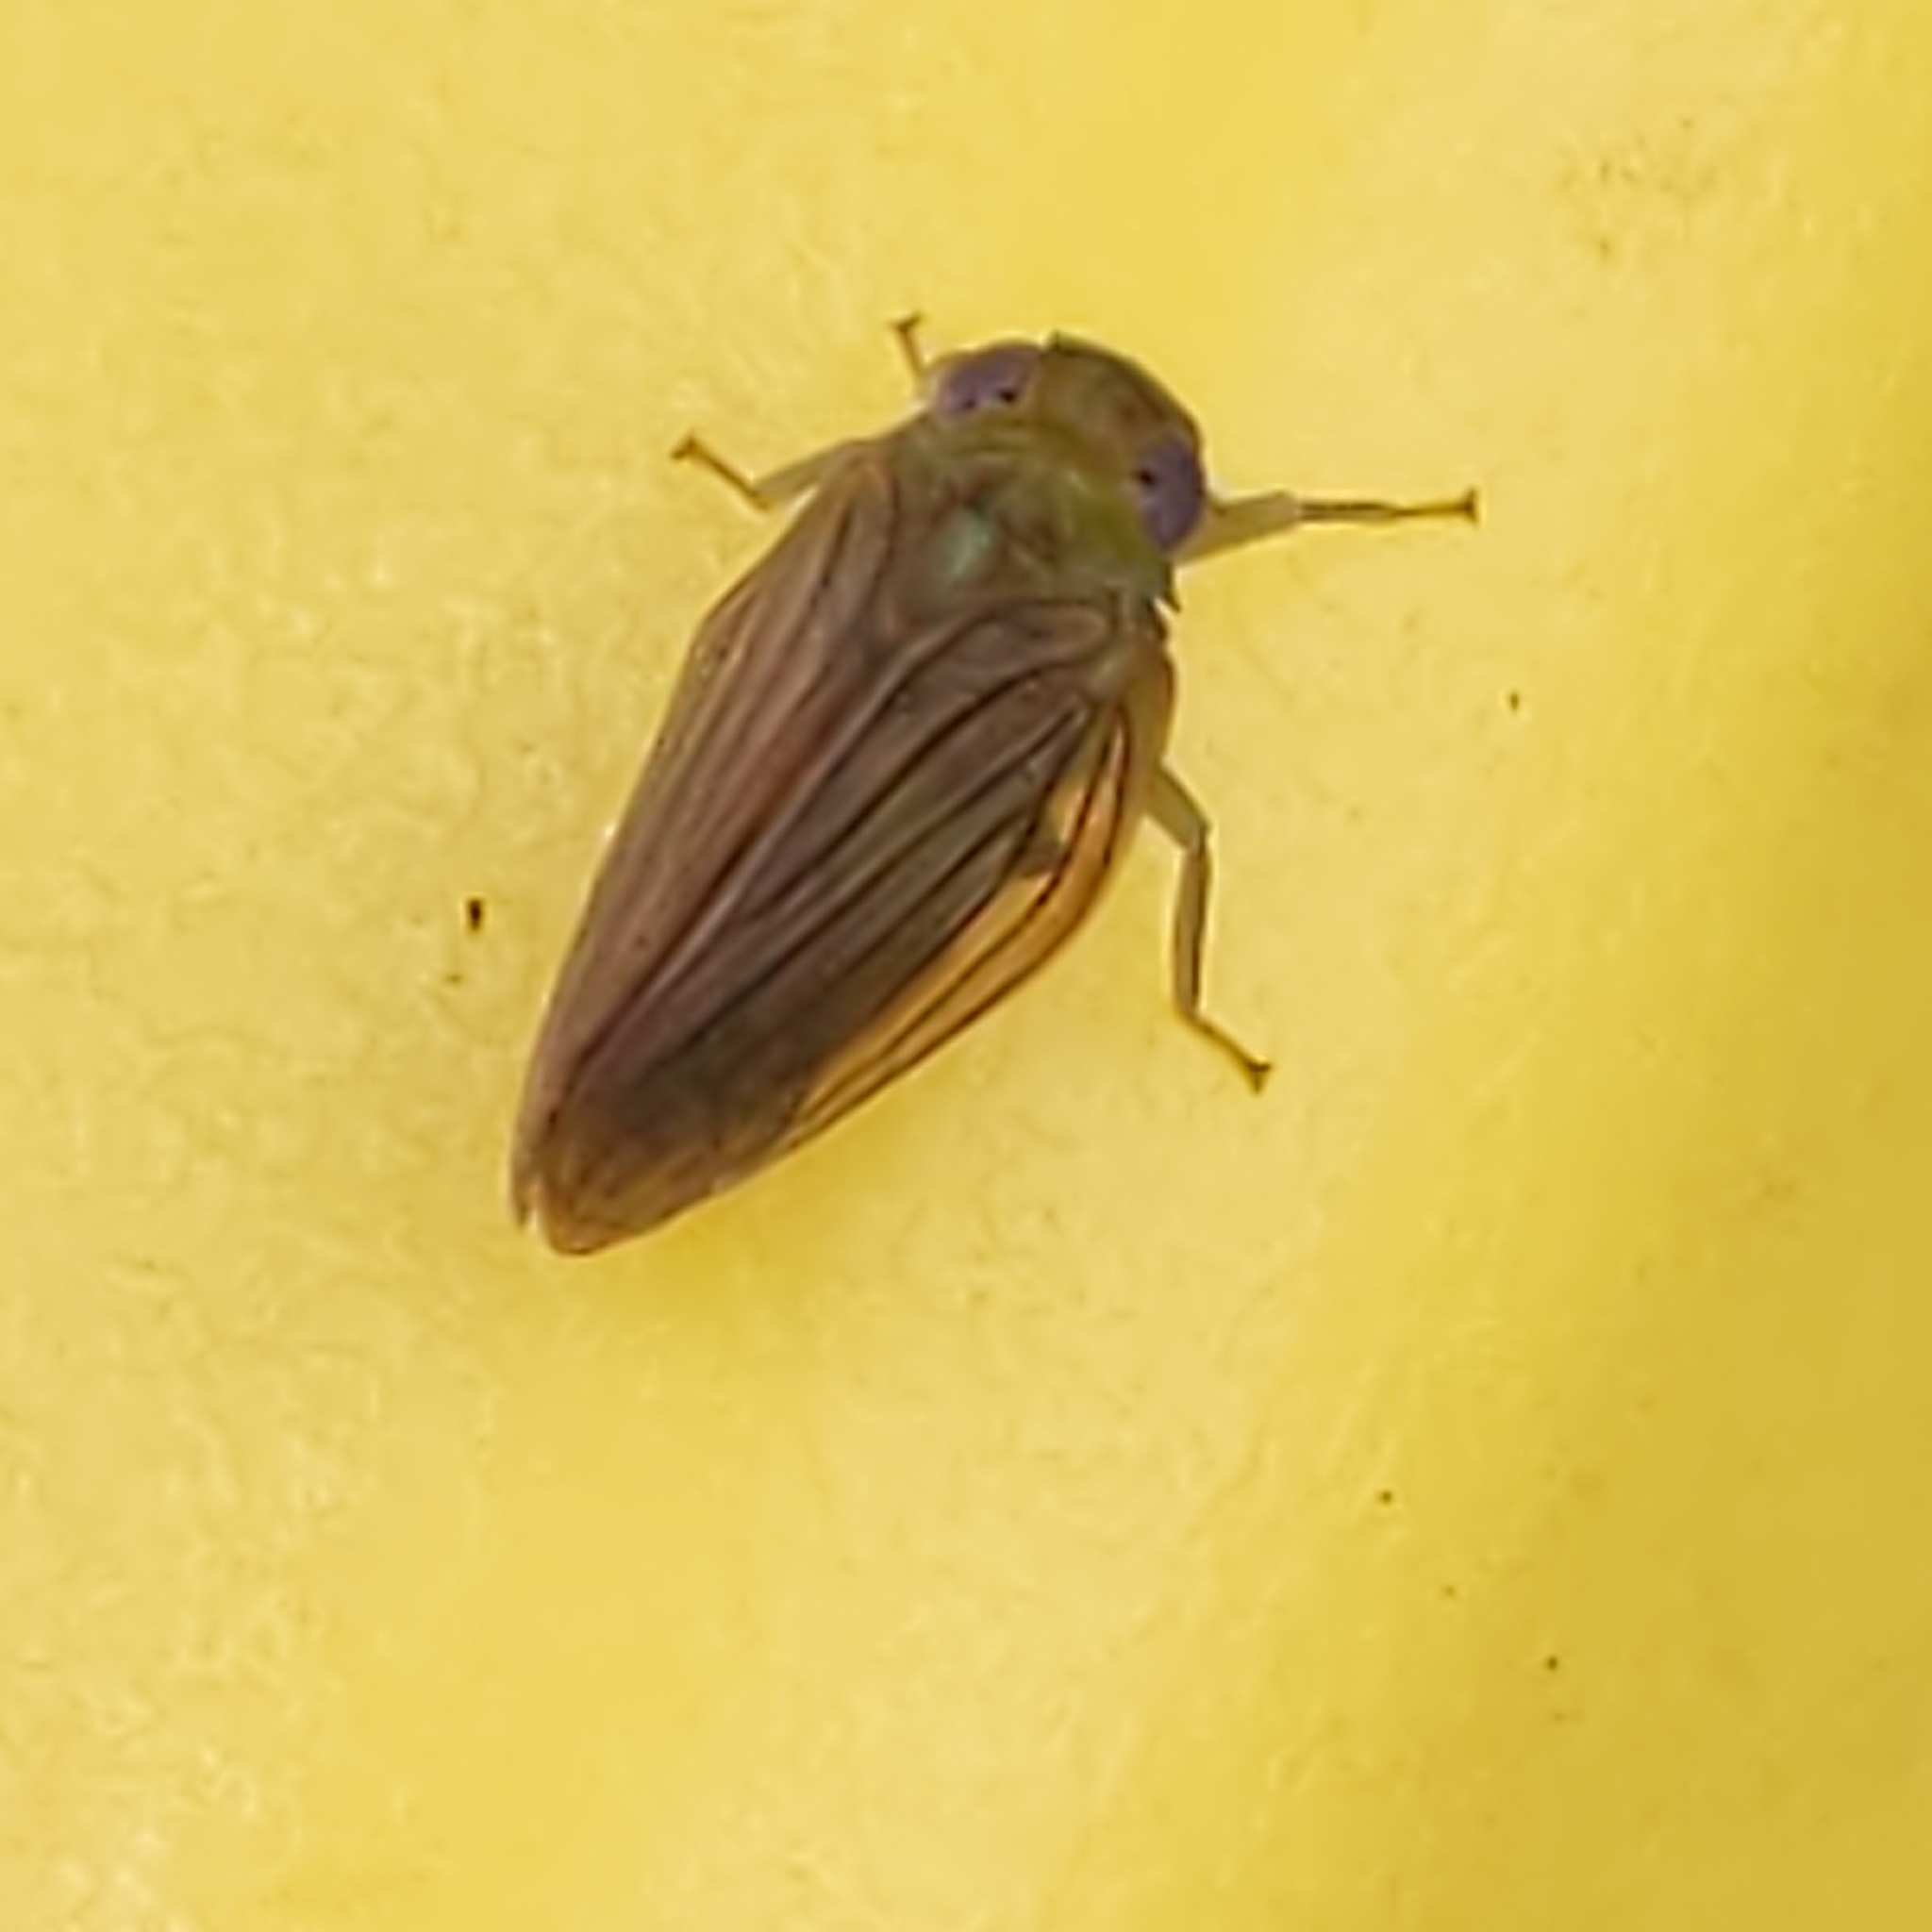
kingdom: Animalia
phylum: Arthropoda
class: Insecta
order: Hemiptera
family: Issidae
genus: Aplos
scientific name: Aplos simplex
